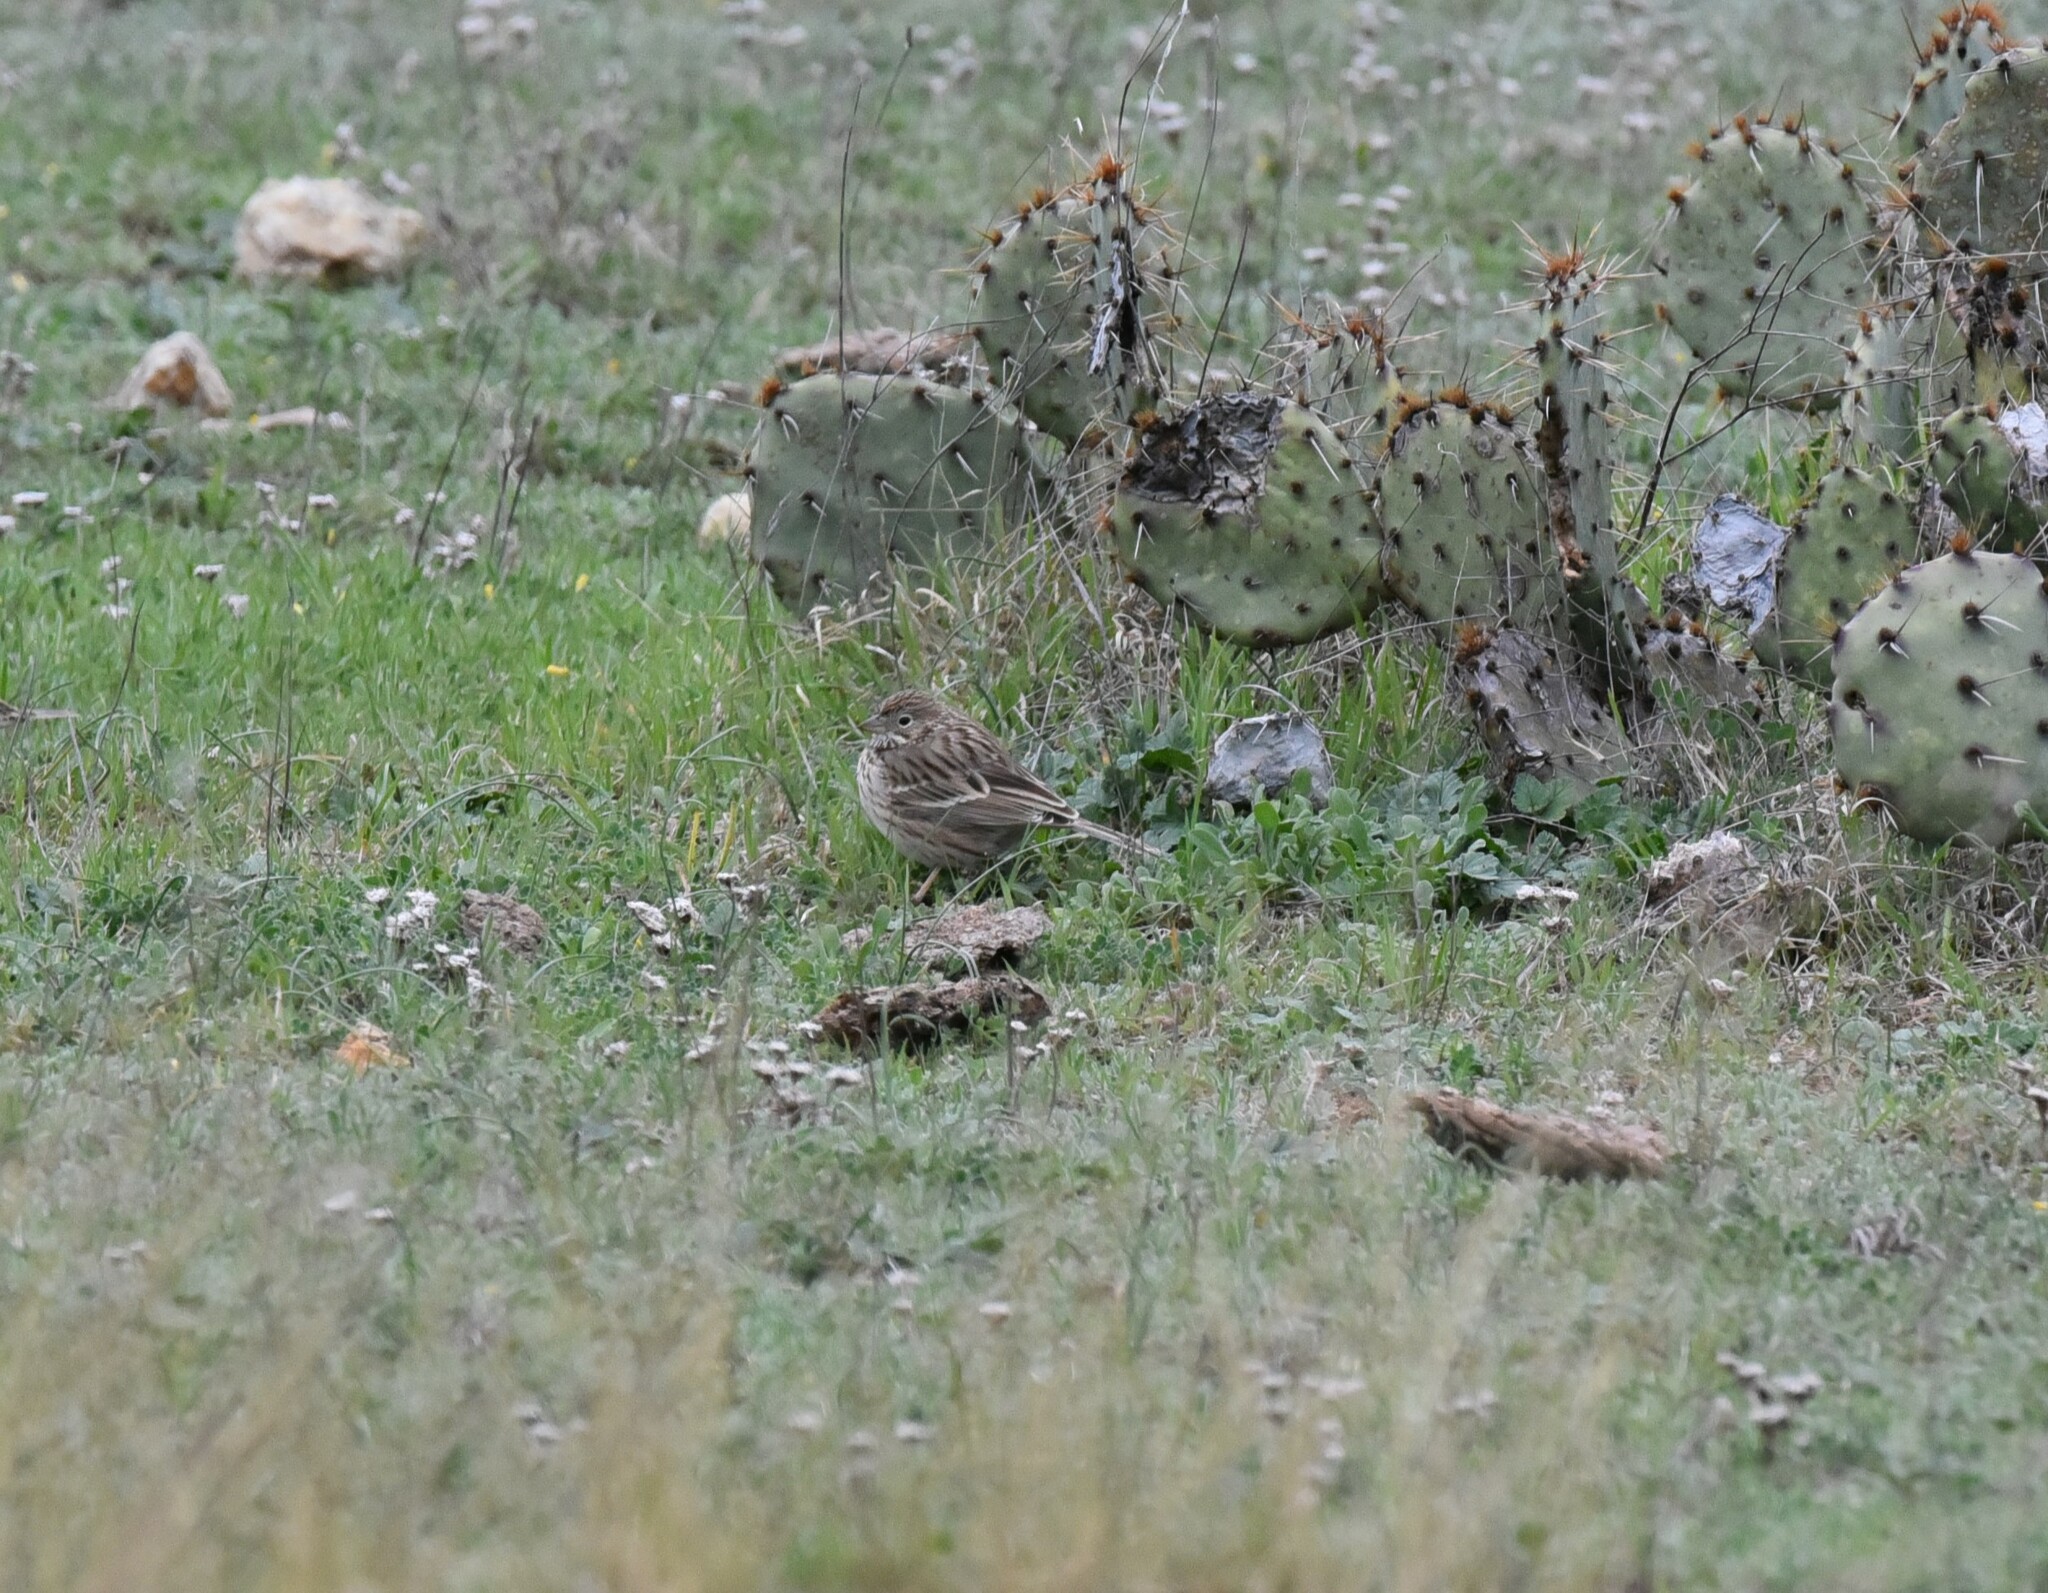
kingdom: Animalia
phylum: Chordata
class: Aves
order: Passeriformes
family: Passerellidae
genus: Pooecetes
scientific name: Pooecetes gramineus
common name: Vesper sparrow
